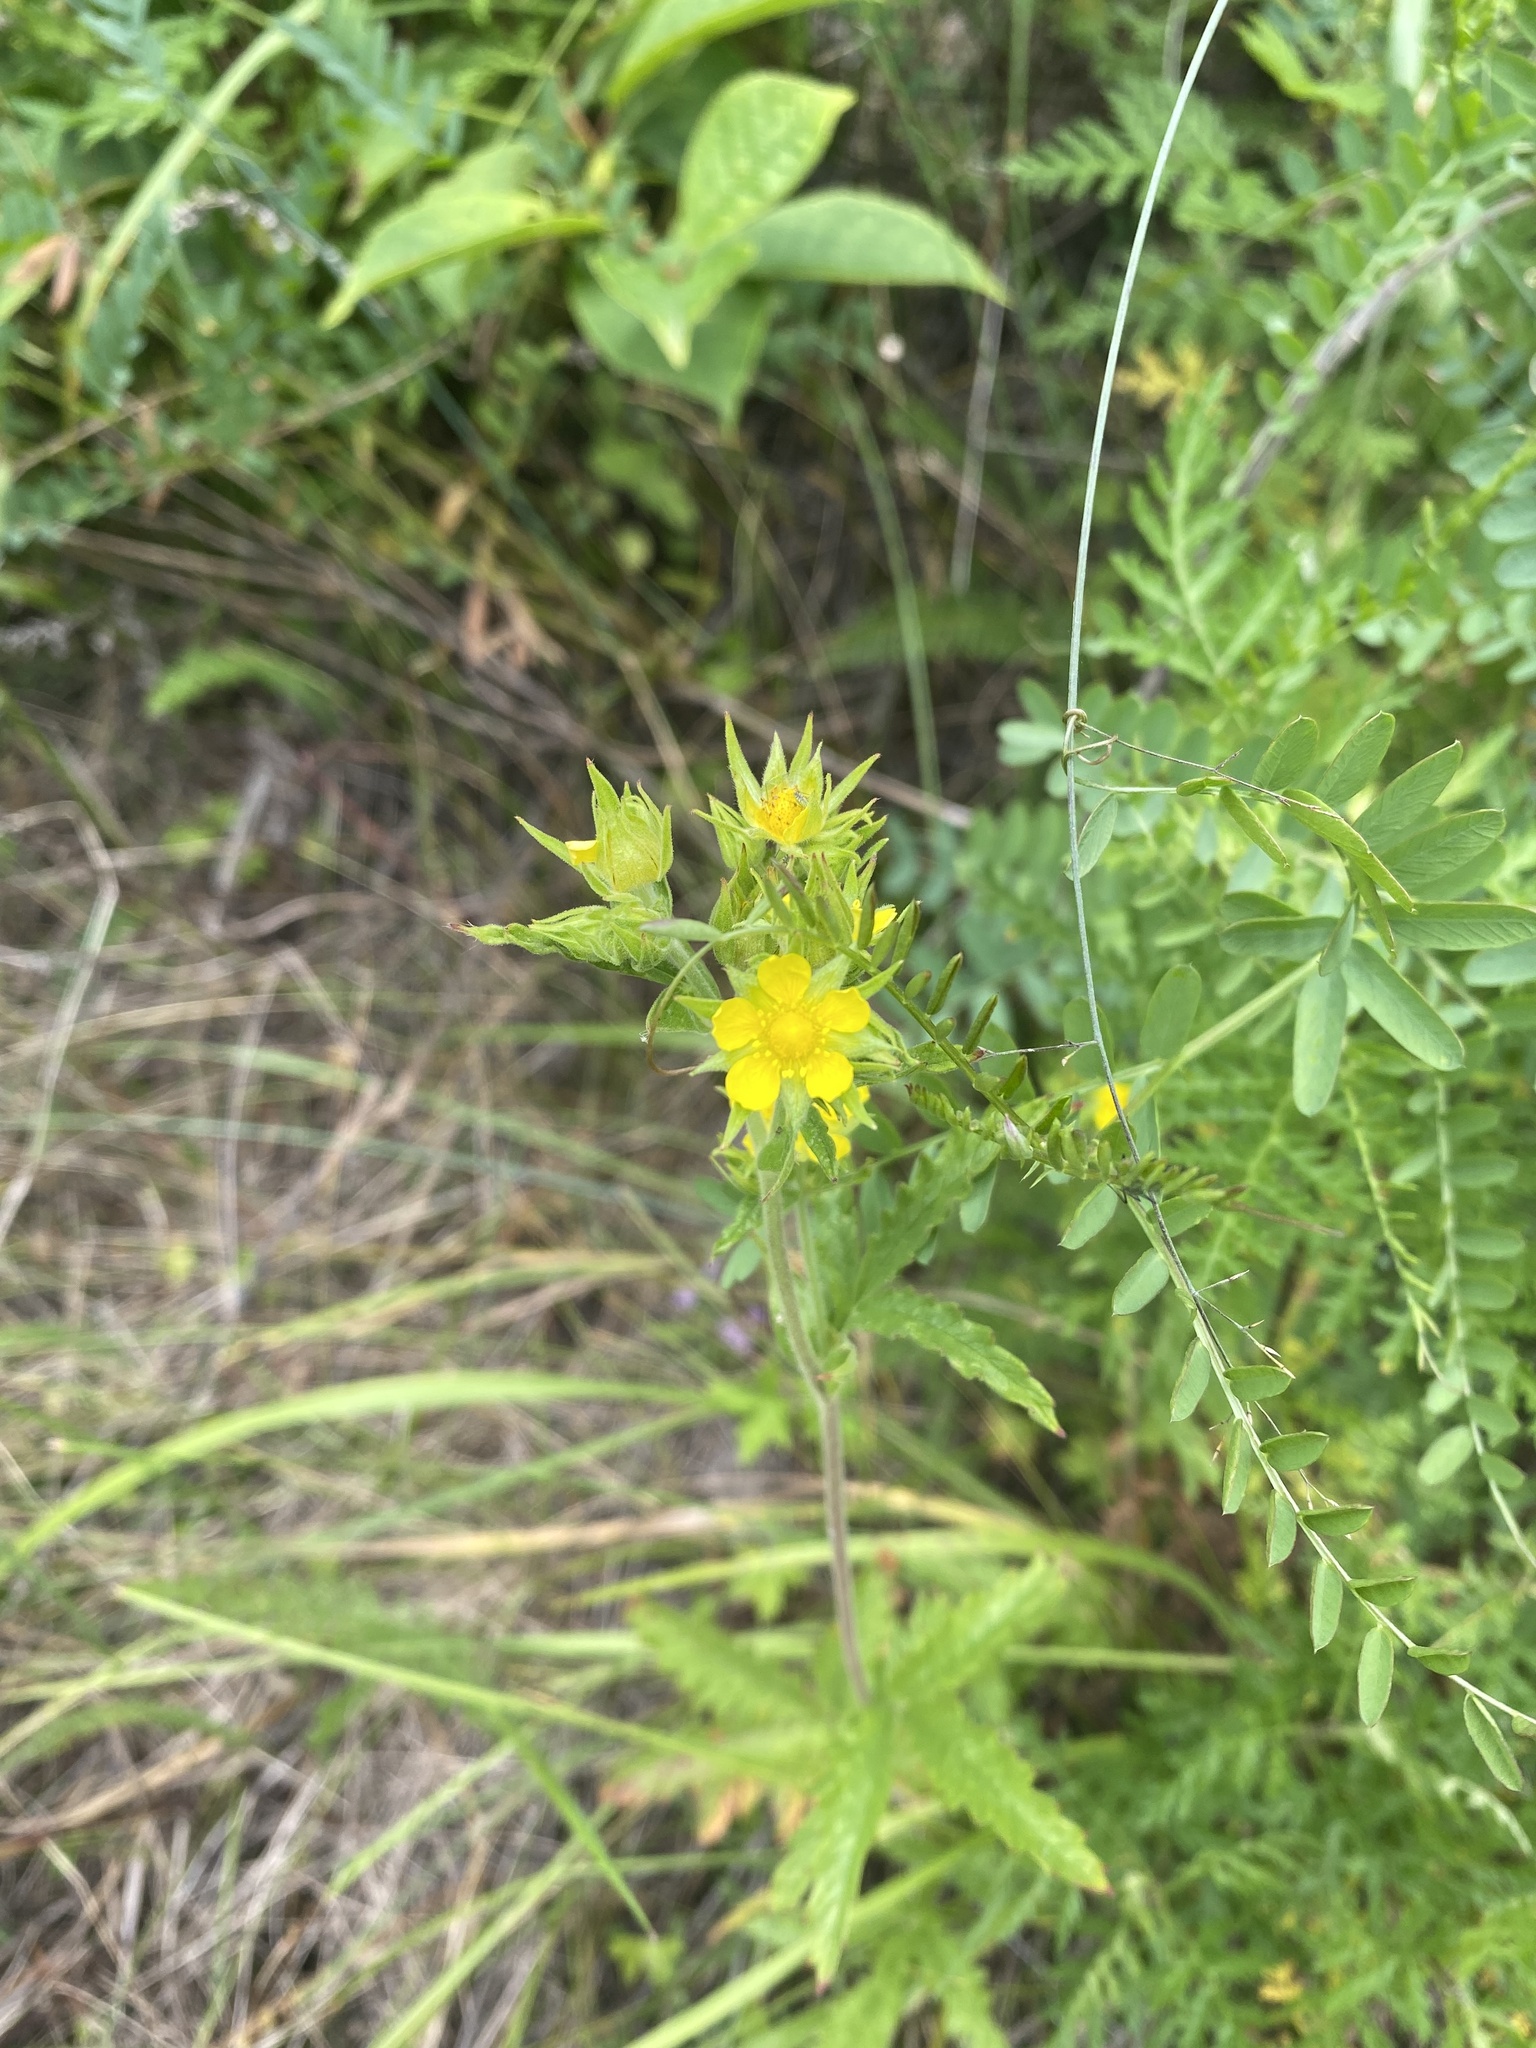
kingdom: Plantae
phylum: Tracheophyta
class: Magnoliopsida
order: Rosales
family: Rosaceae
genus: Potentilla
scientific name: Potentilla longifolia
